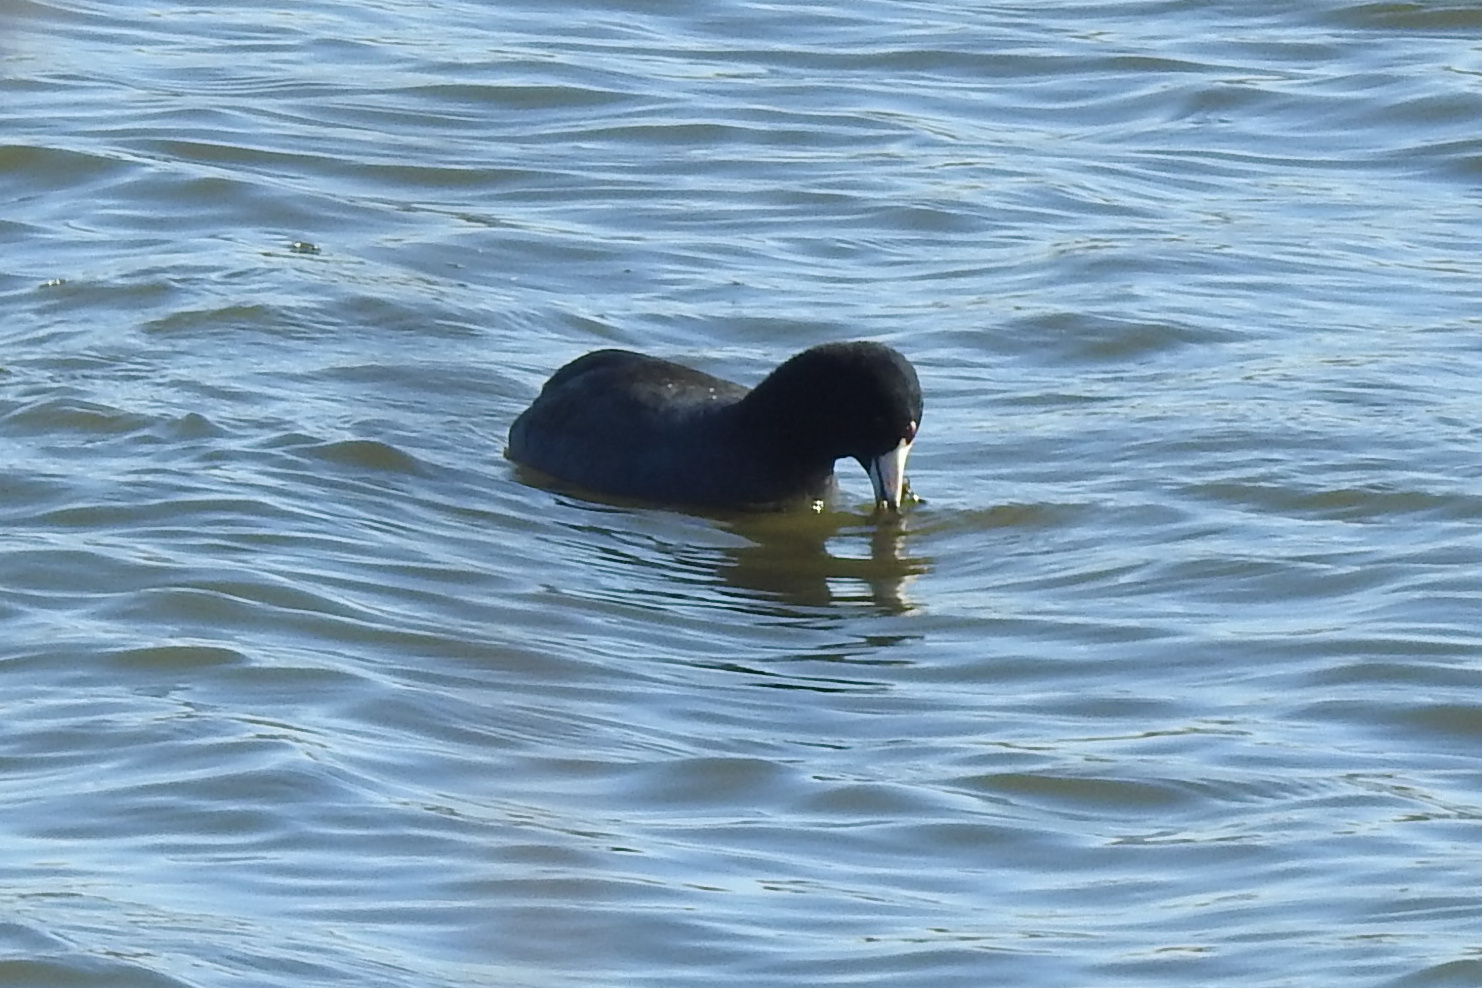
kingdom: Animalia
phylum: Chordata
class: Aves
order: Gruiformes
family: Rallidae
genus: Fulica
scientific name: Fulica americana
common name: American coot
